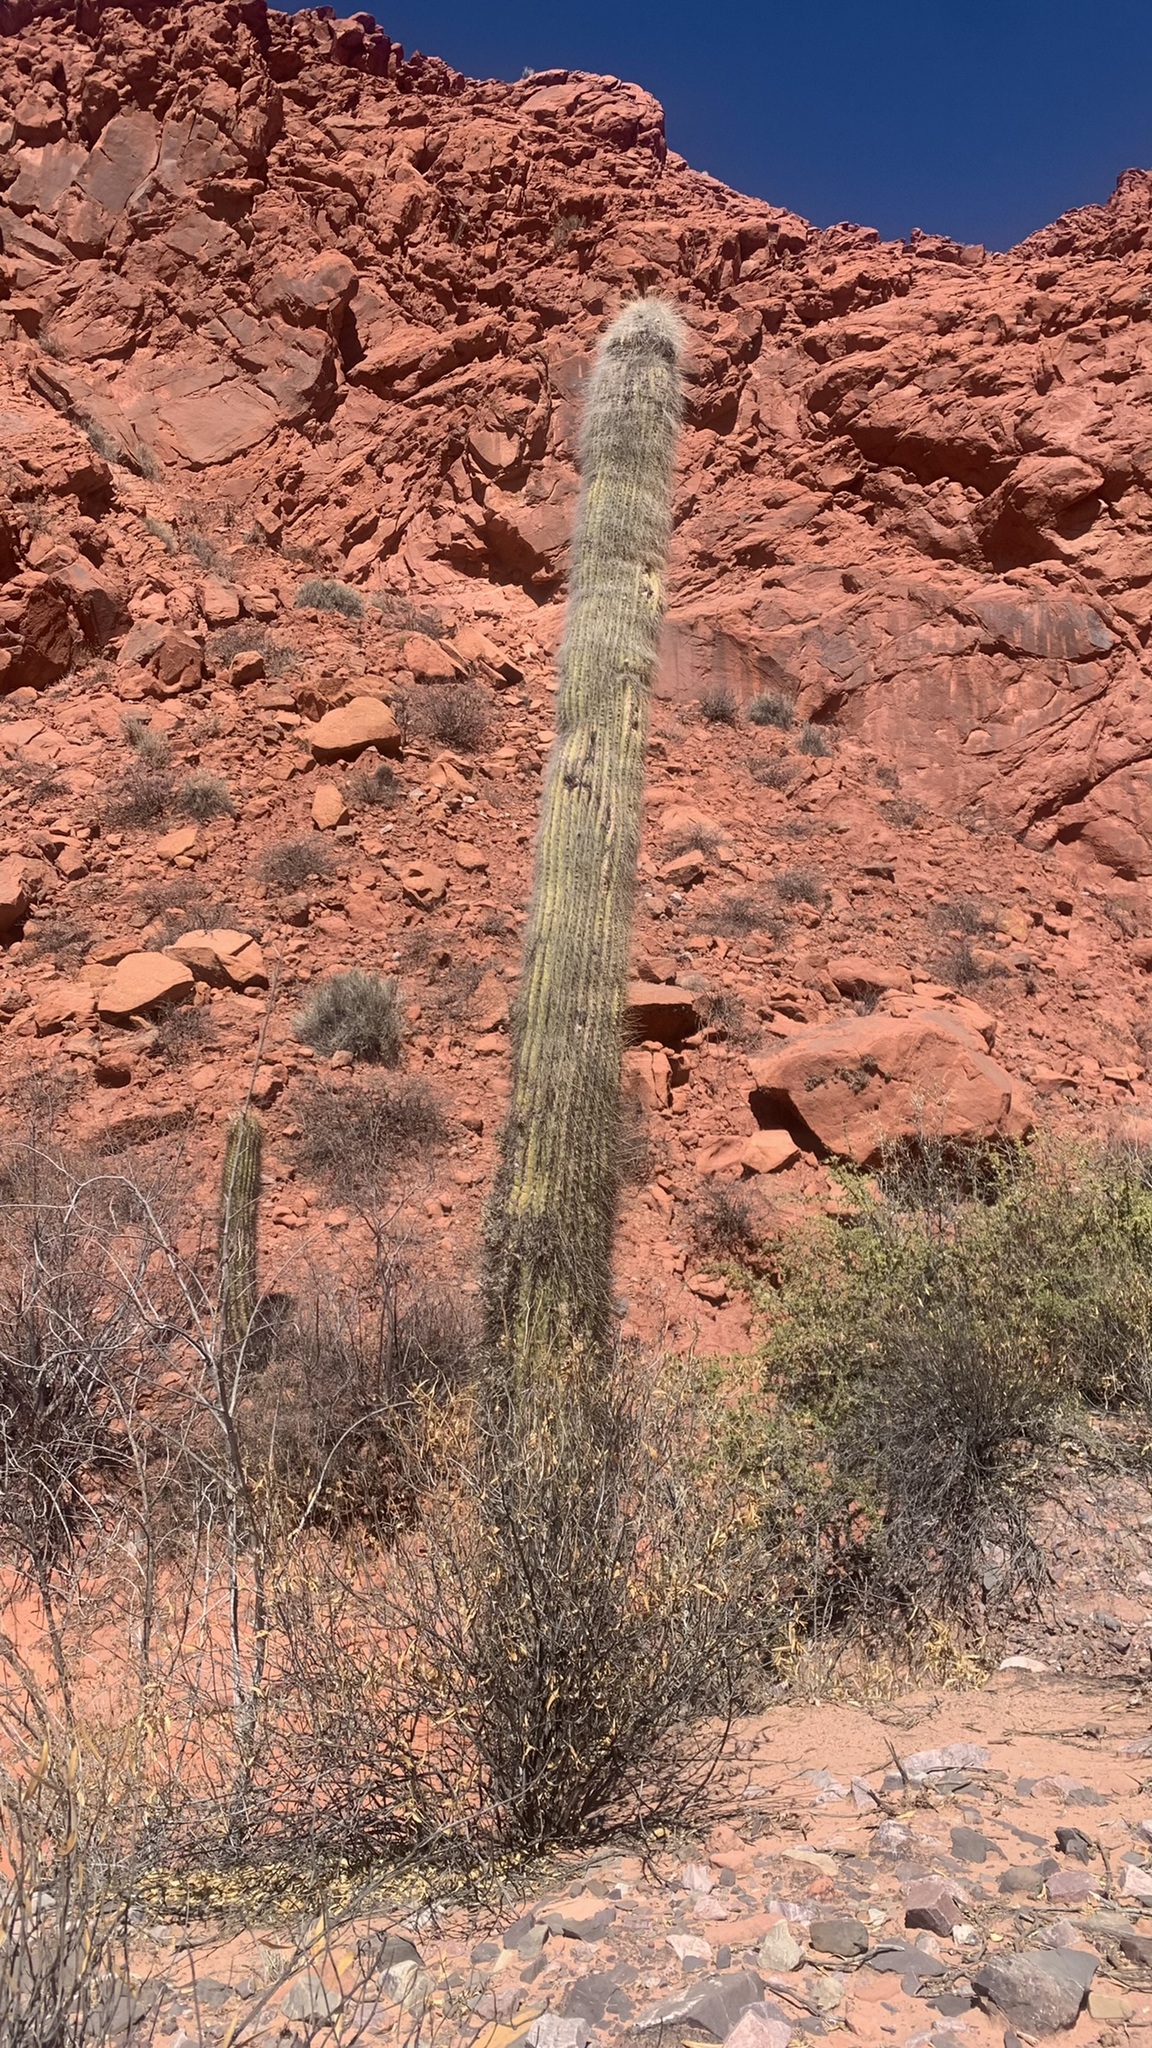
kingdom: Plantae
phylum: Tracheophyta
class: Magnoliopsida
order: Caryophyllales
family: Cactaceae
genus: Leucostele
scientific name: Leucostele atacamensis
